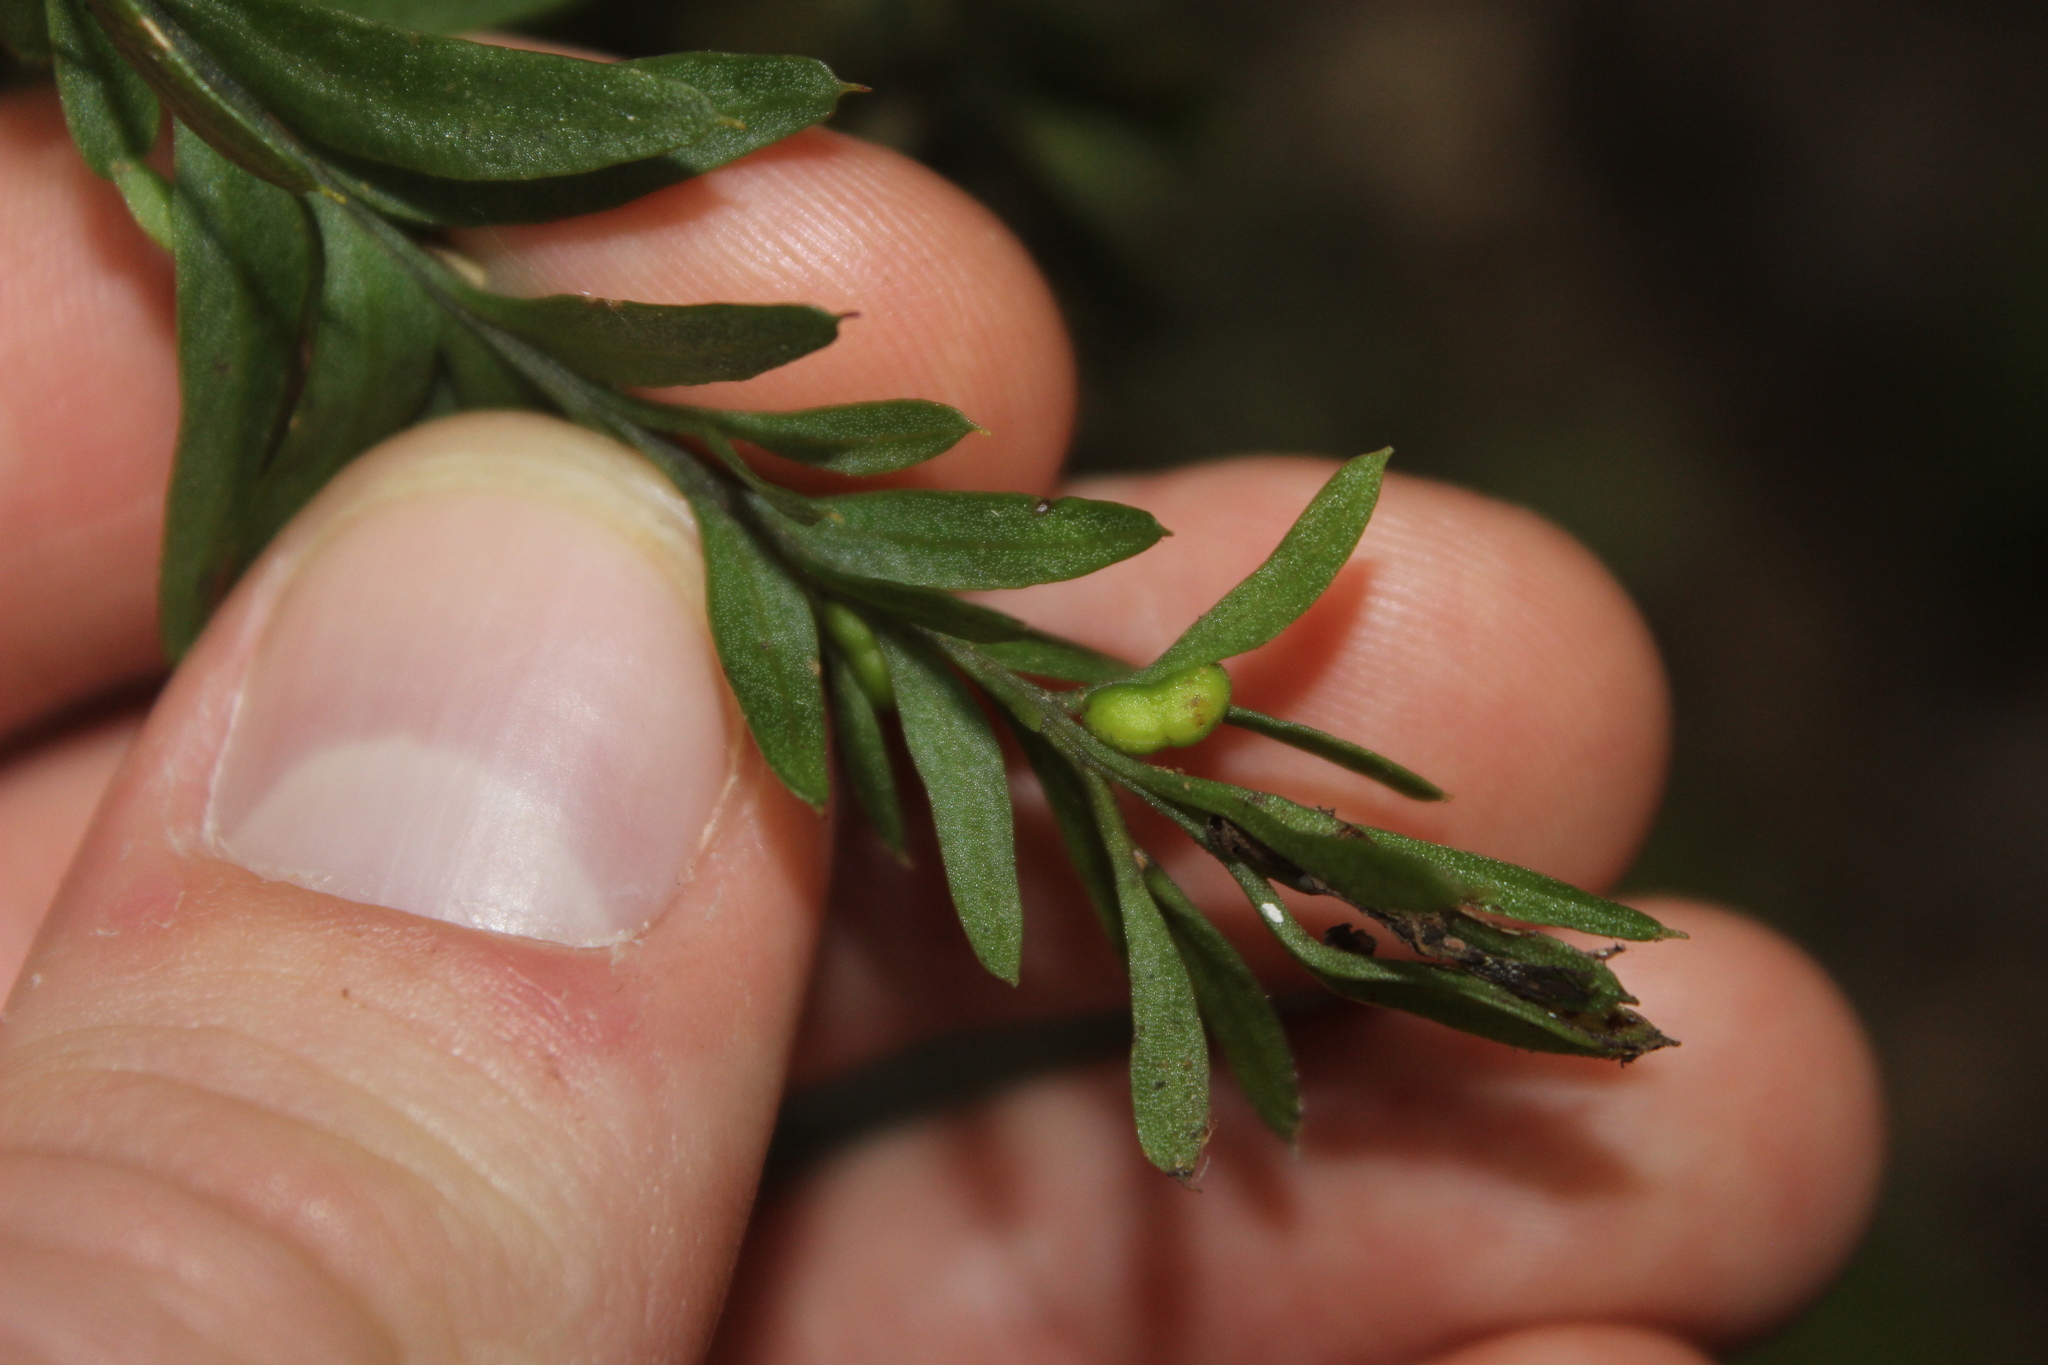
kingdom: Plantae
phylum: Tracheophyta
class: Polypodiopsida
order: Psilotales
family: Psilotaceae
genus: Tmesipteris
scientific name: Tmesipteris elongata
